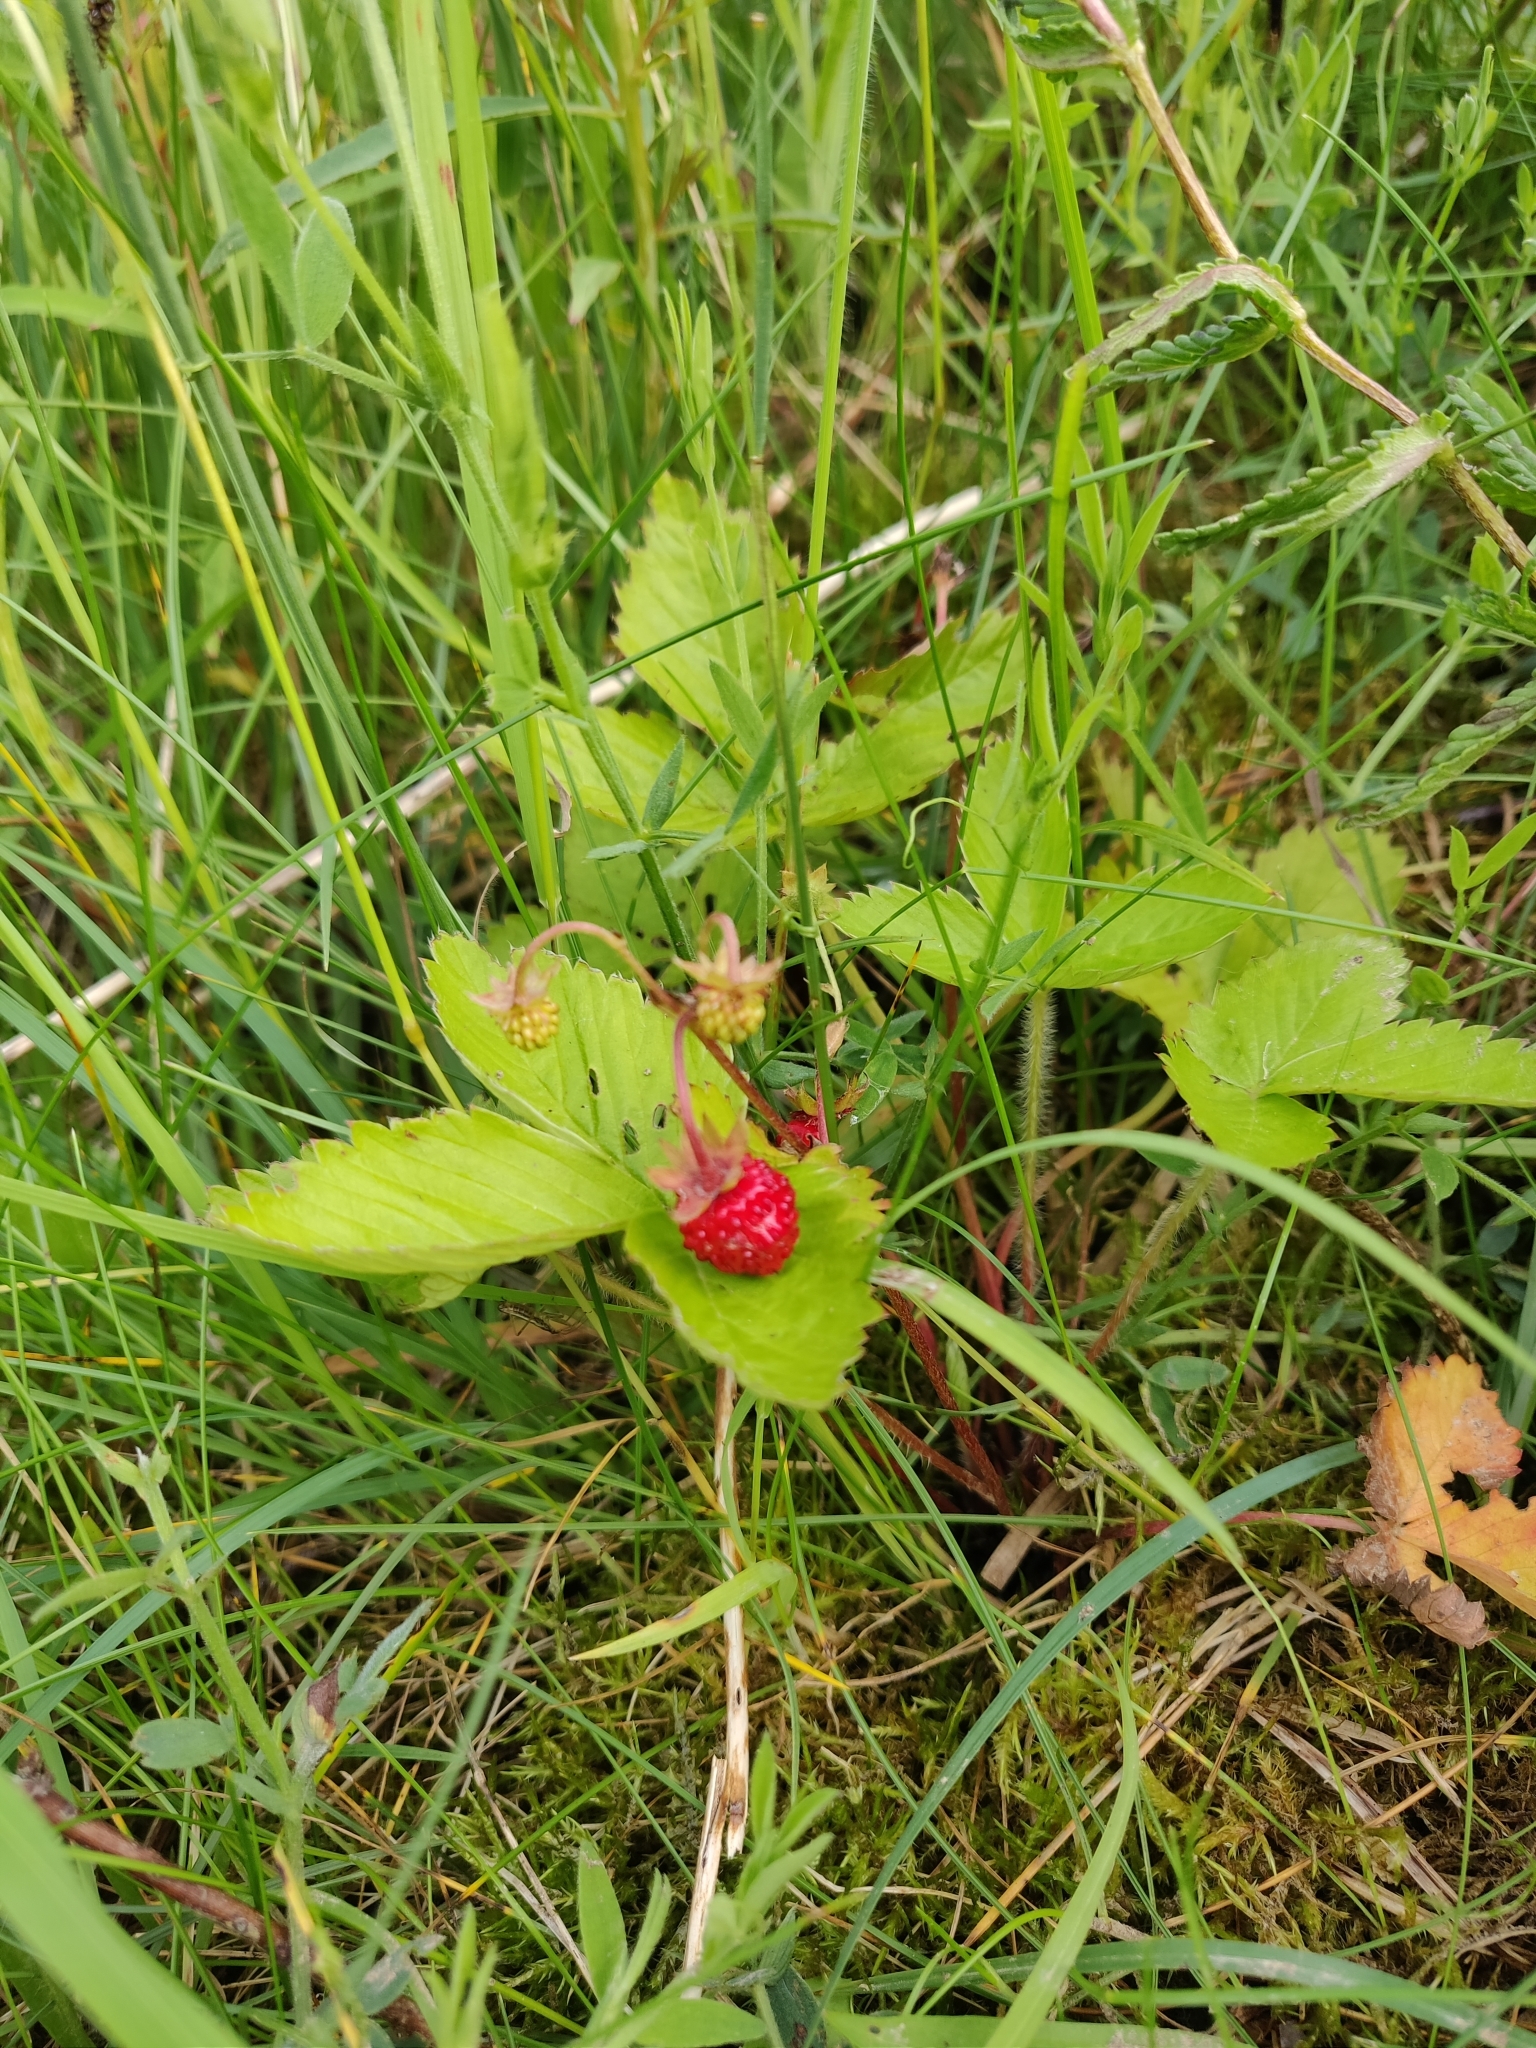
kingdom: Plantae
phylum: Tracheophyta
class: Magnoliopsida
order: Rosales
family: Rosaceae
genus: Fragaria
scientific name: Fragaria vesca
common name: Wild strawberry
